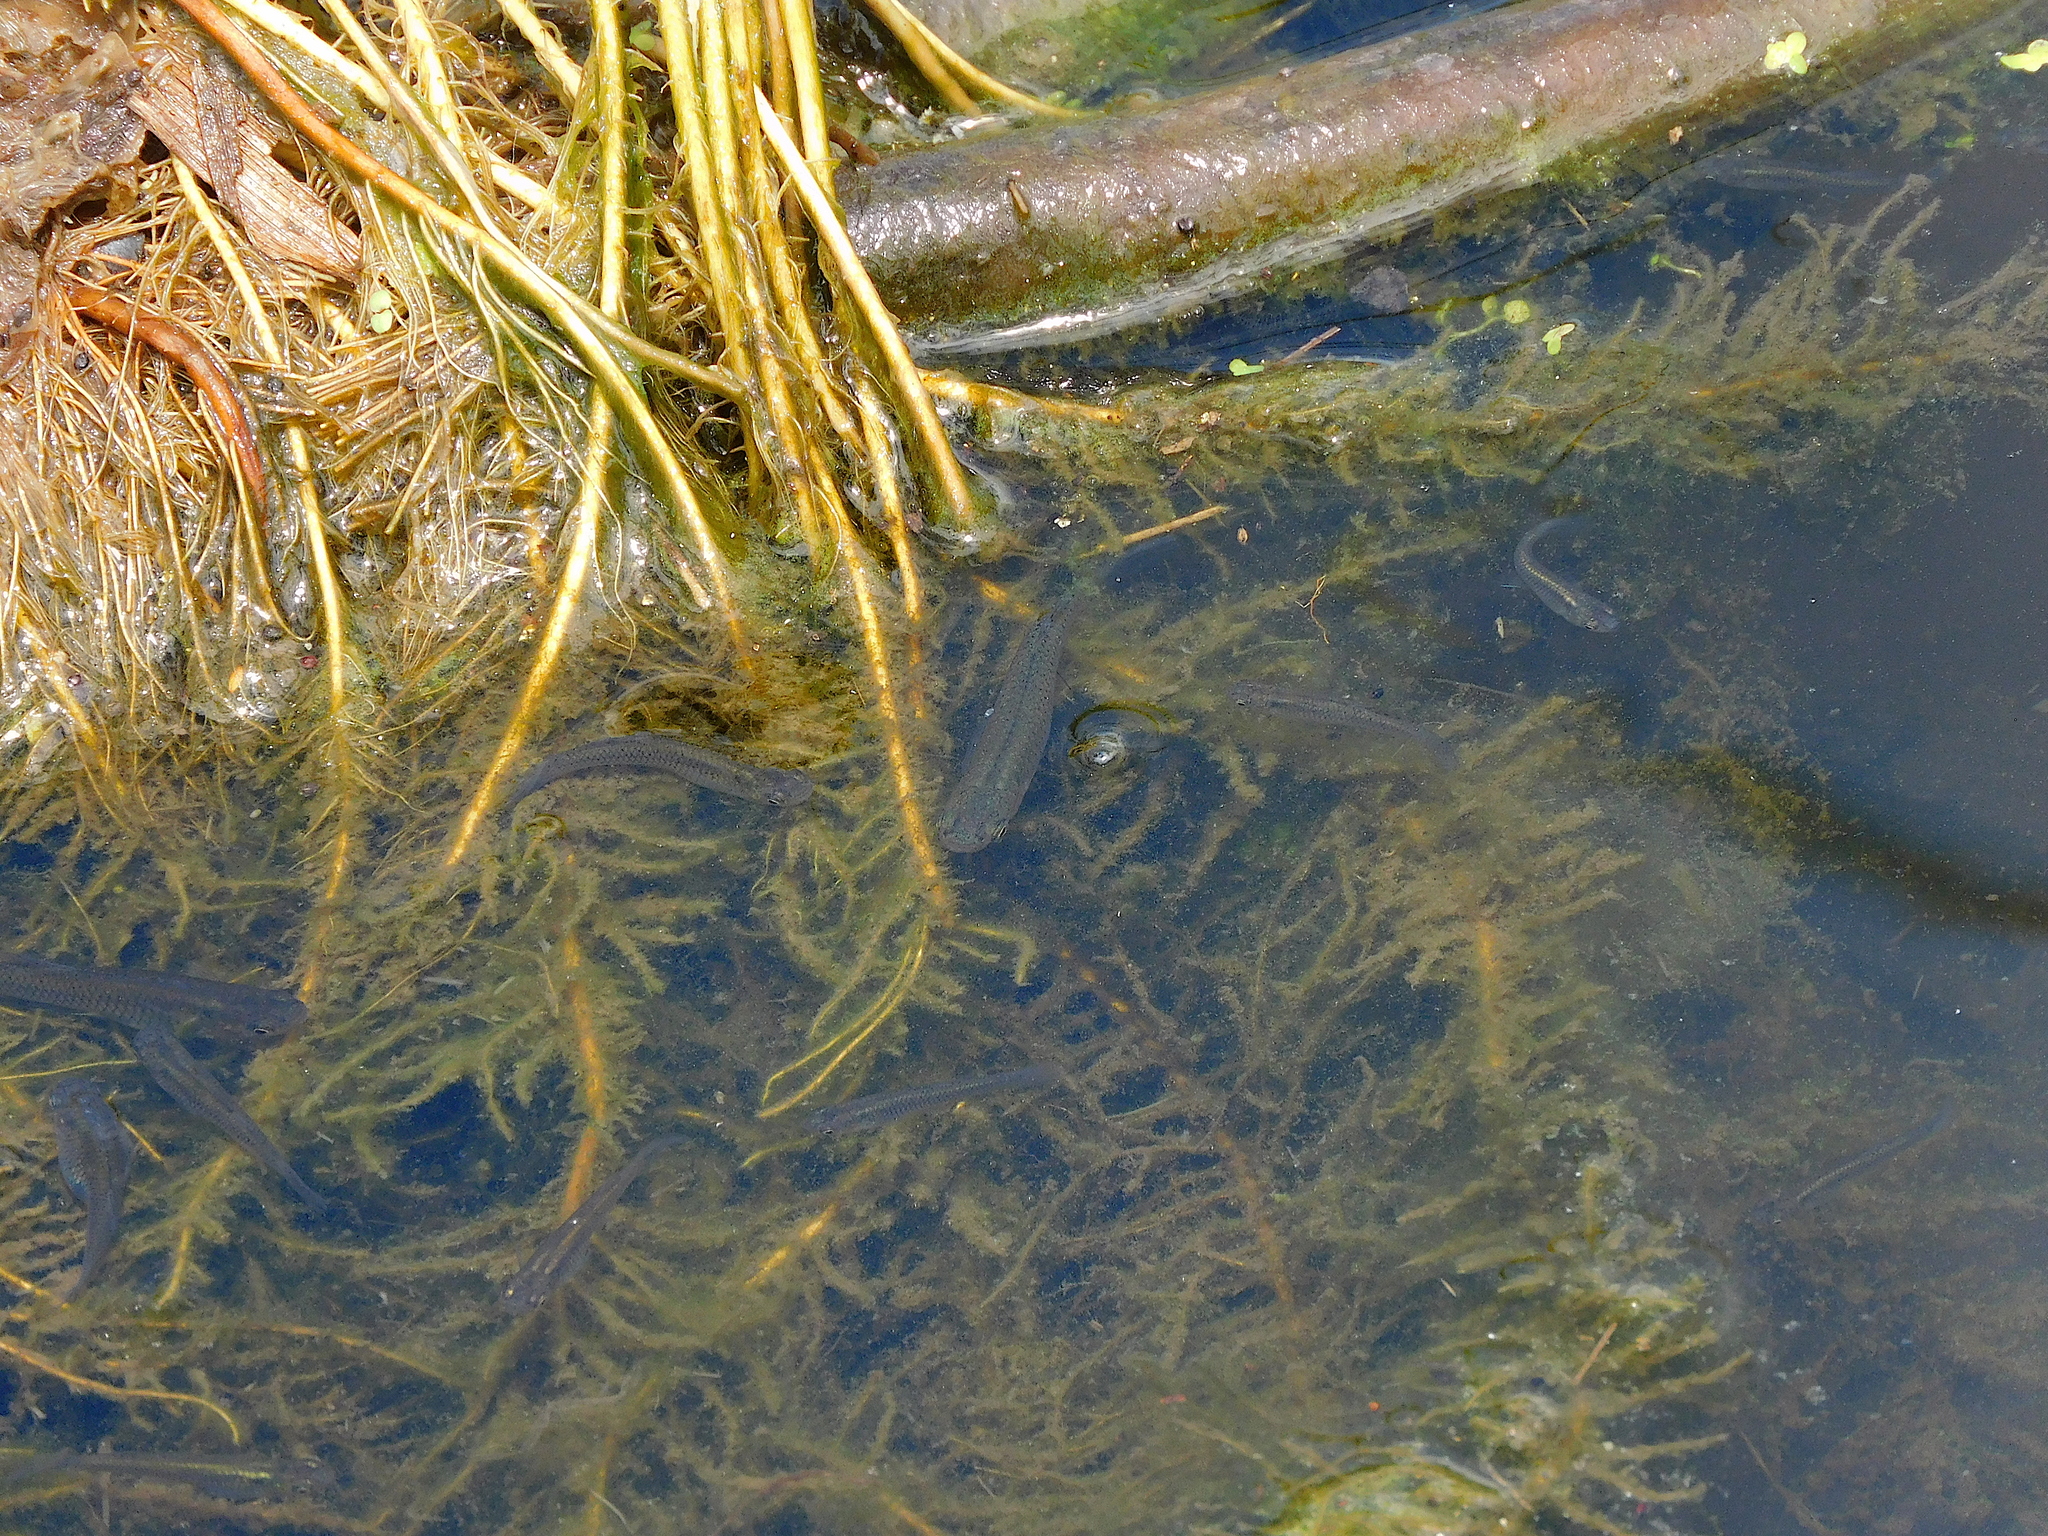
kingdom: Animalia
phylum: Chordata
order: Cyprinodontiformes
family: Poeciliidae
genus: Gambusia
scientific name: Gambusia affinis
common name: Mosquitofish
